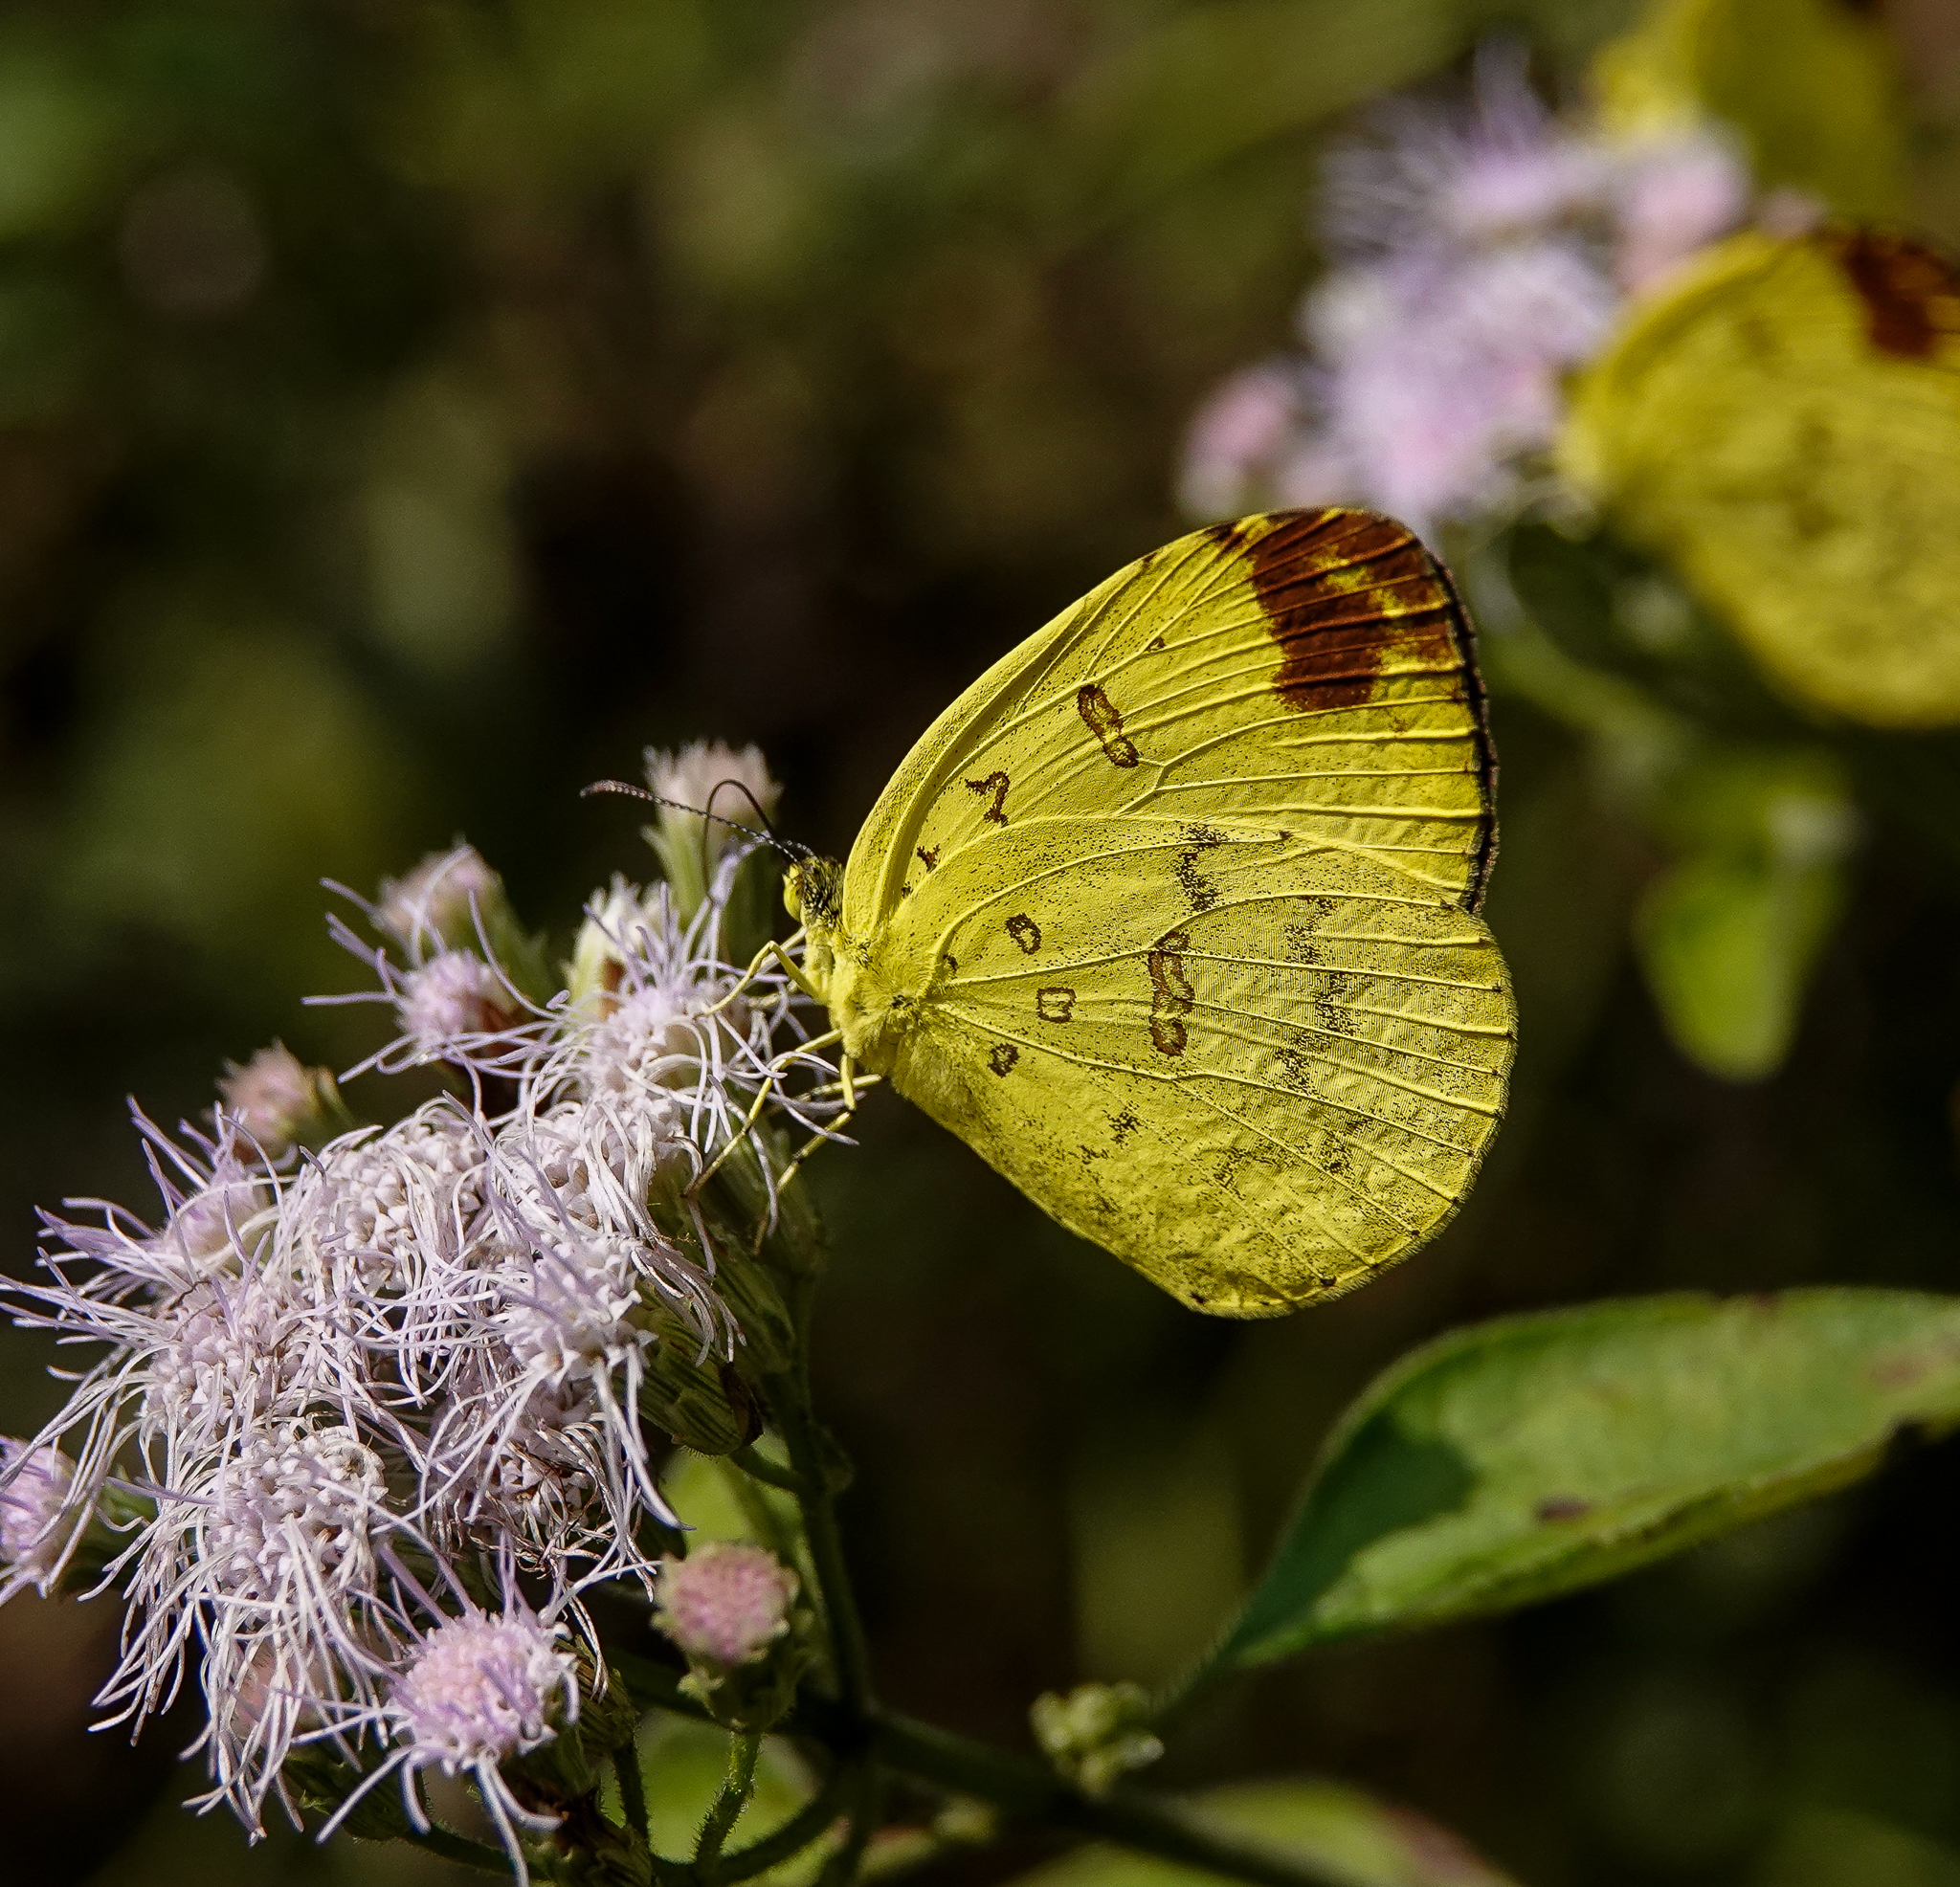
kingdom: Animalia
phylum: Arthropoda
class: Insecta
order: Lepidoptera
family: Pieridae
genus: Eurema
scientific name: Eurema blanda
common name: Three-spot grass yellow
